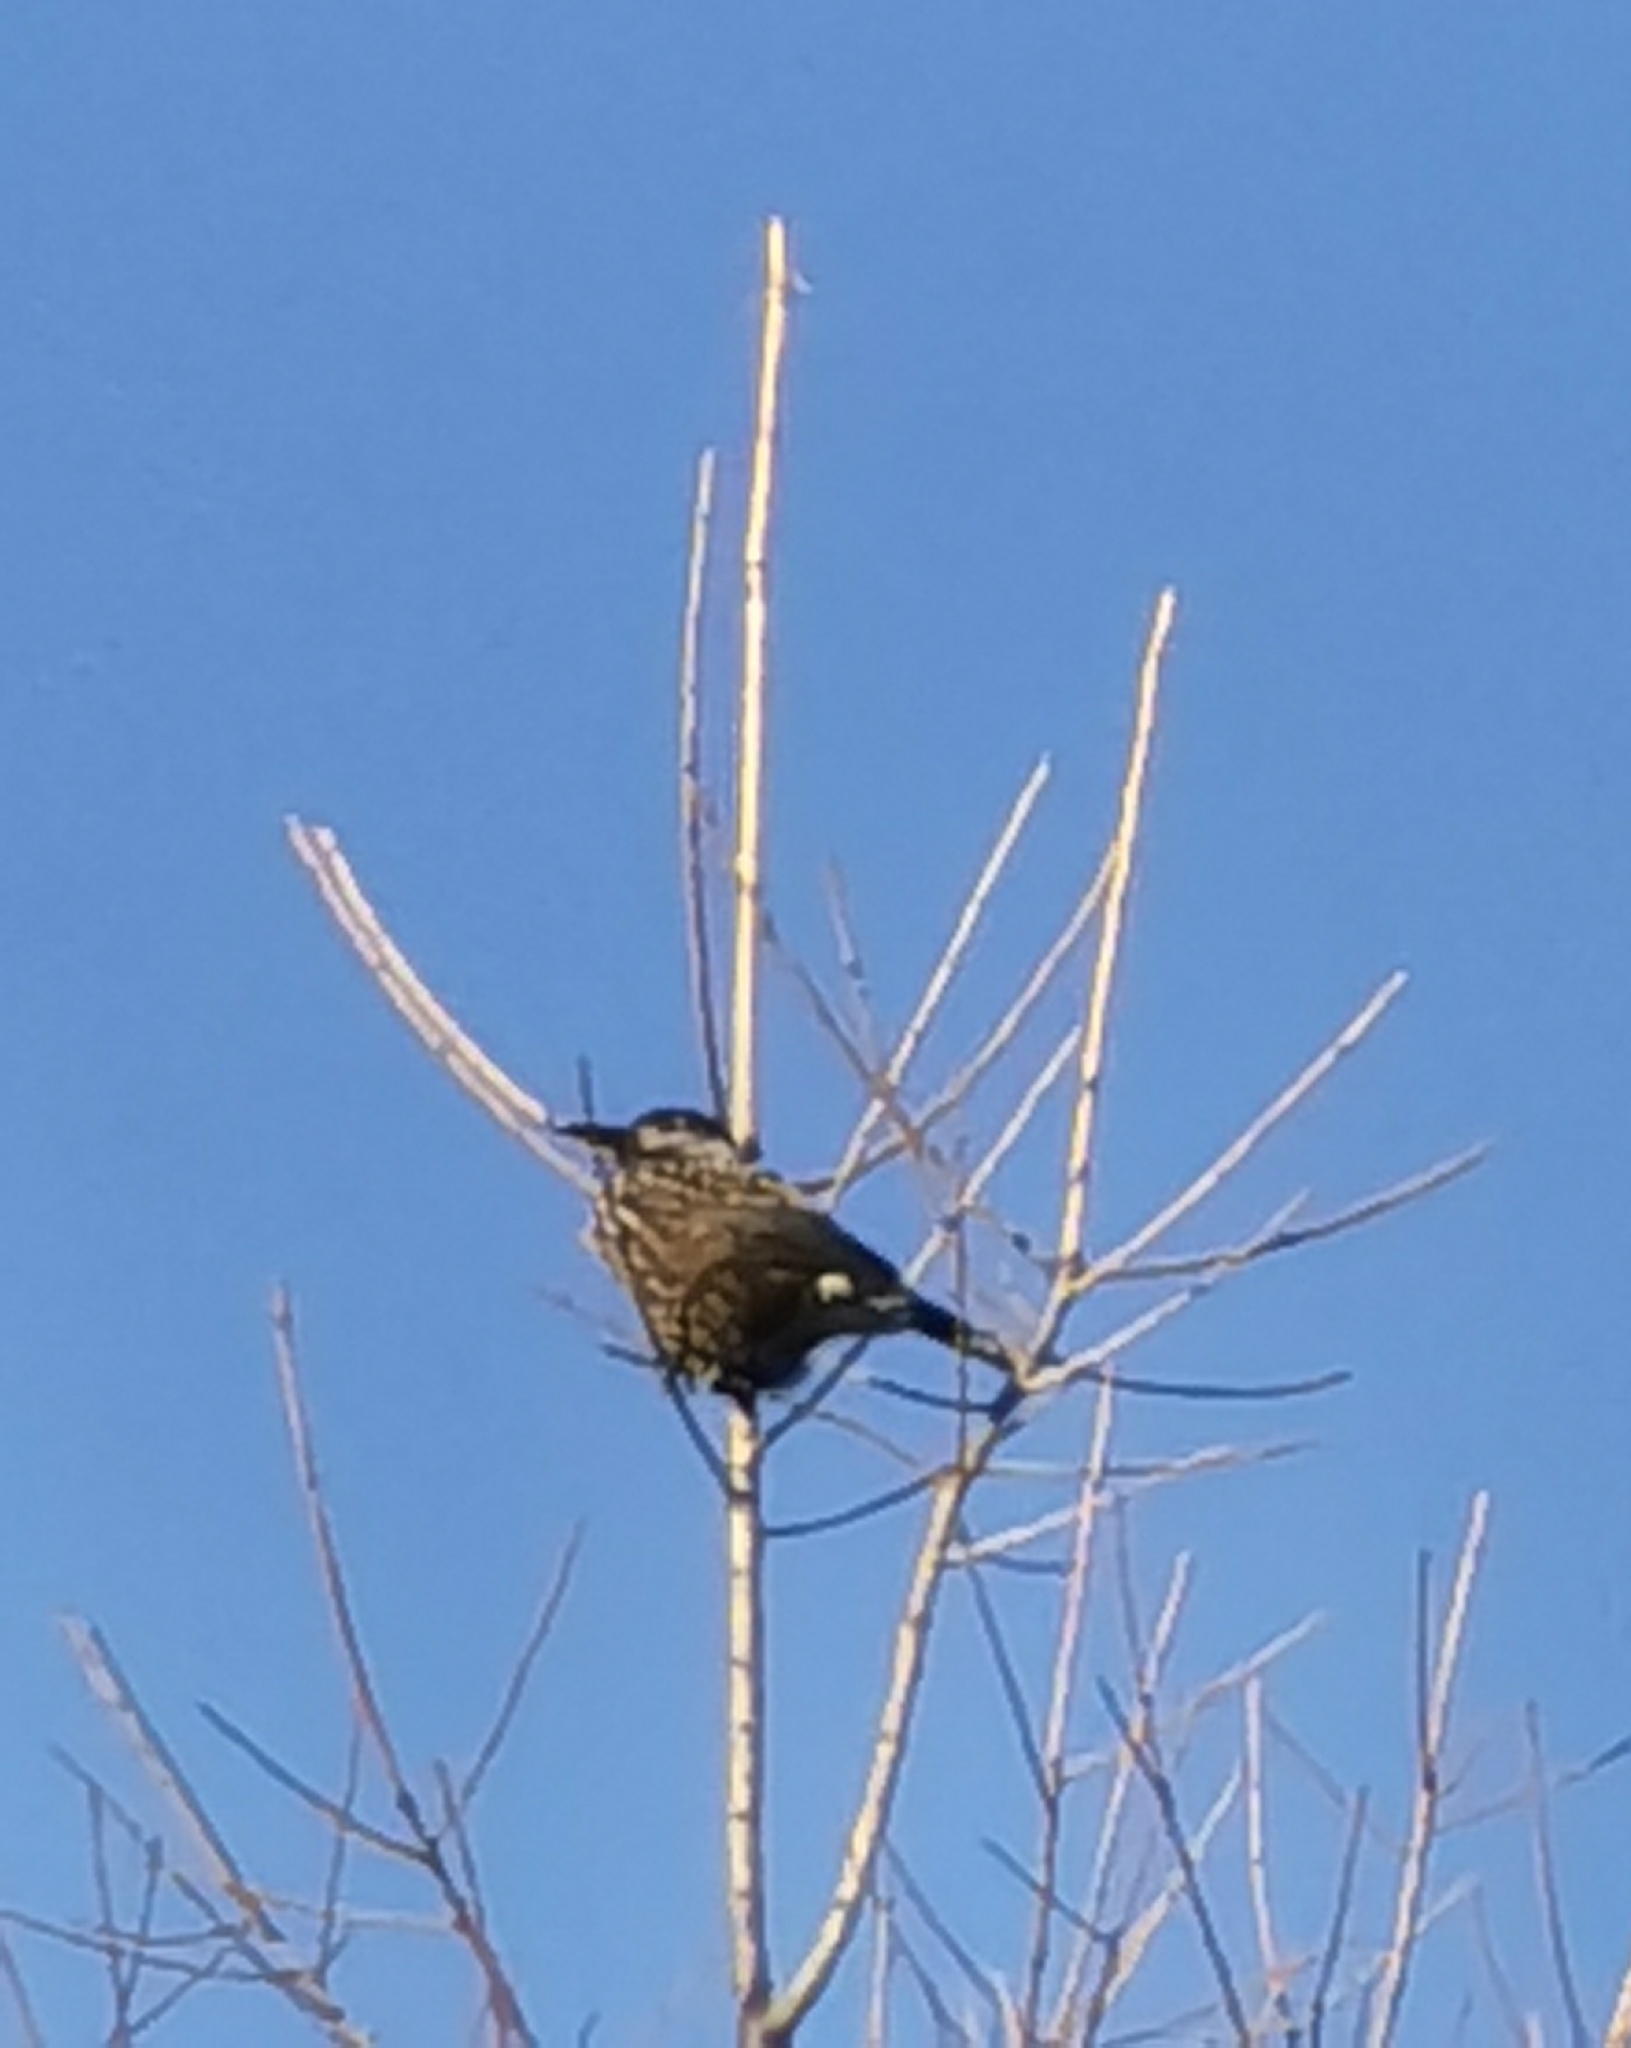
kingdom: Animalia
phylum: Chordata
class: Aves
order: Passeriformes
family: Corvidae
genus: Nucifraga
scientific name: Nucifraga caryocatactes
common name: Spotted nutcracker
